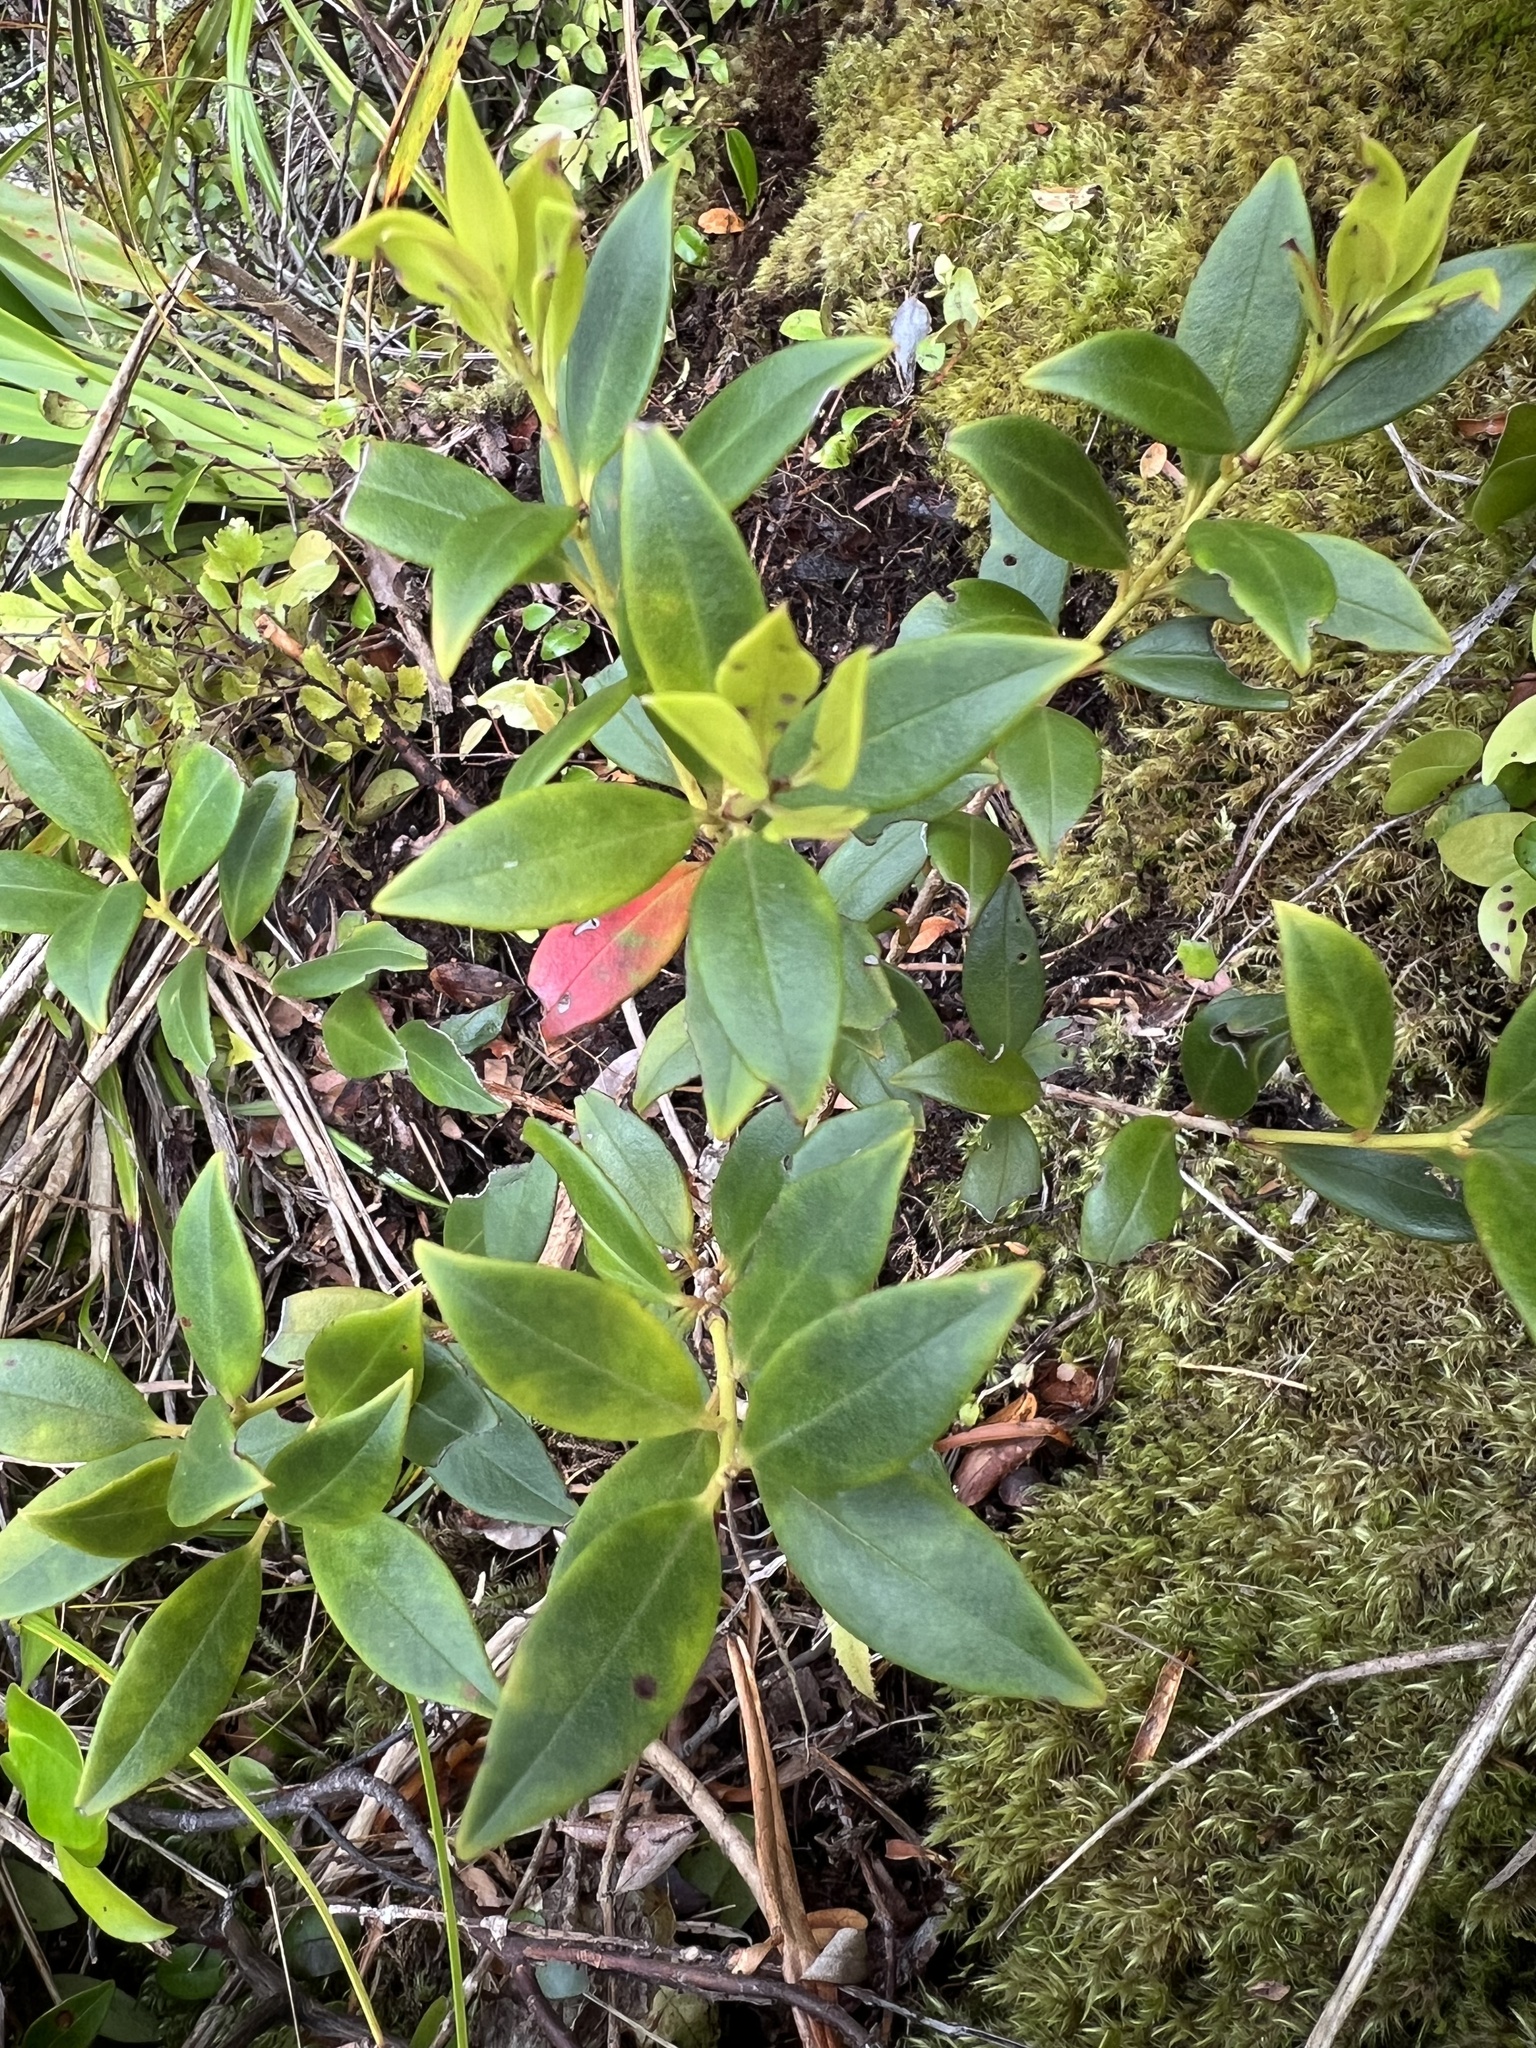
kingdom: Plantae
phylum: Tracheophyta
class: Magnoliopsida
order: Myrtales
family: Myrtaceae
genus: Metrosideros
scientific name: Metrosideros umbellata
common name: Southern rata
